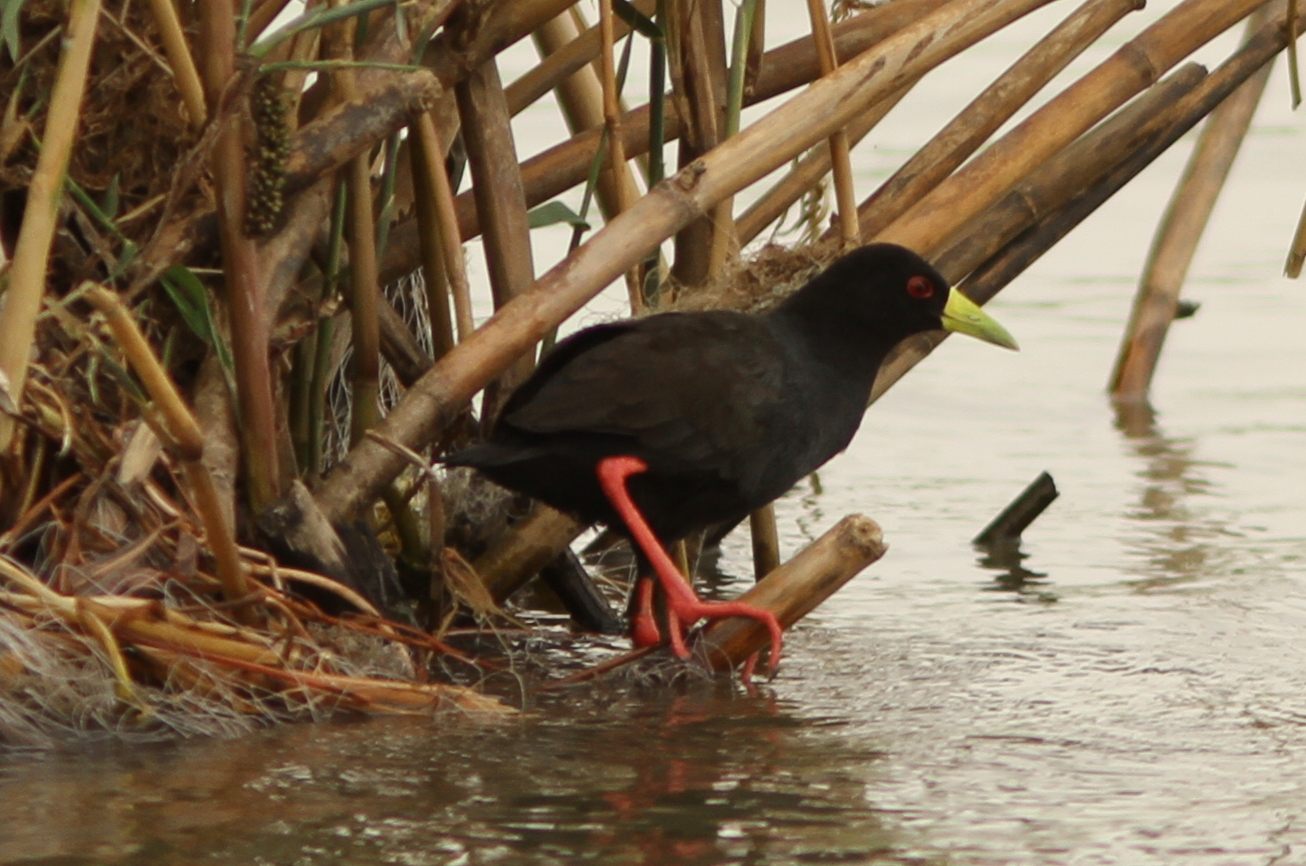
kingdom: Animalia
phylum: Chordata
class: Aves
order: Gruiformes
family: Rallidae
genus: Amaurornis
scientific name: Amaurornis flavirostra
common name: Black crake
